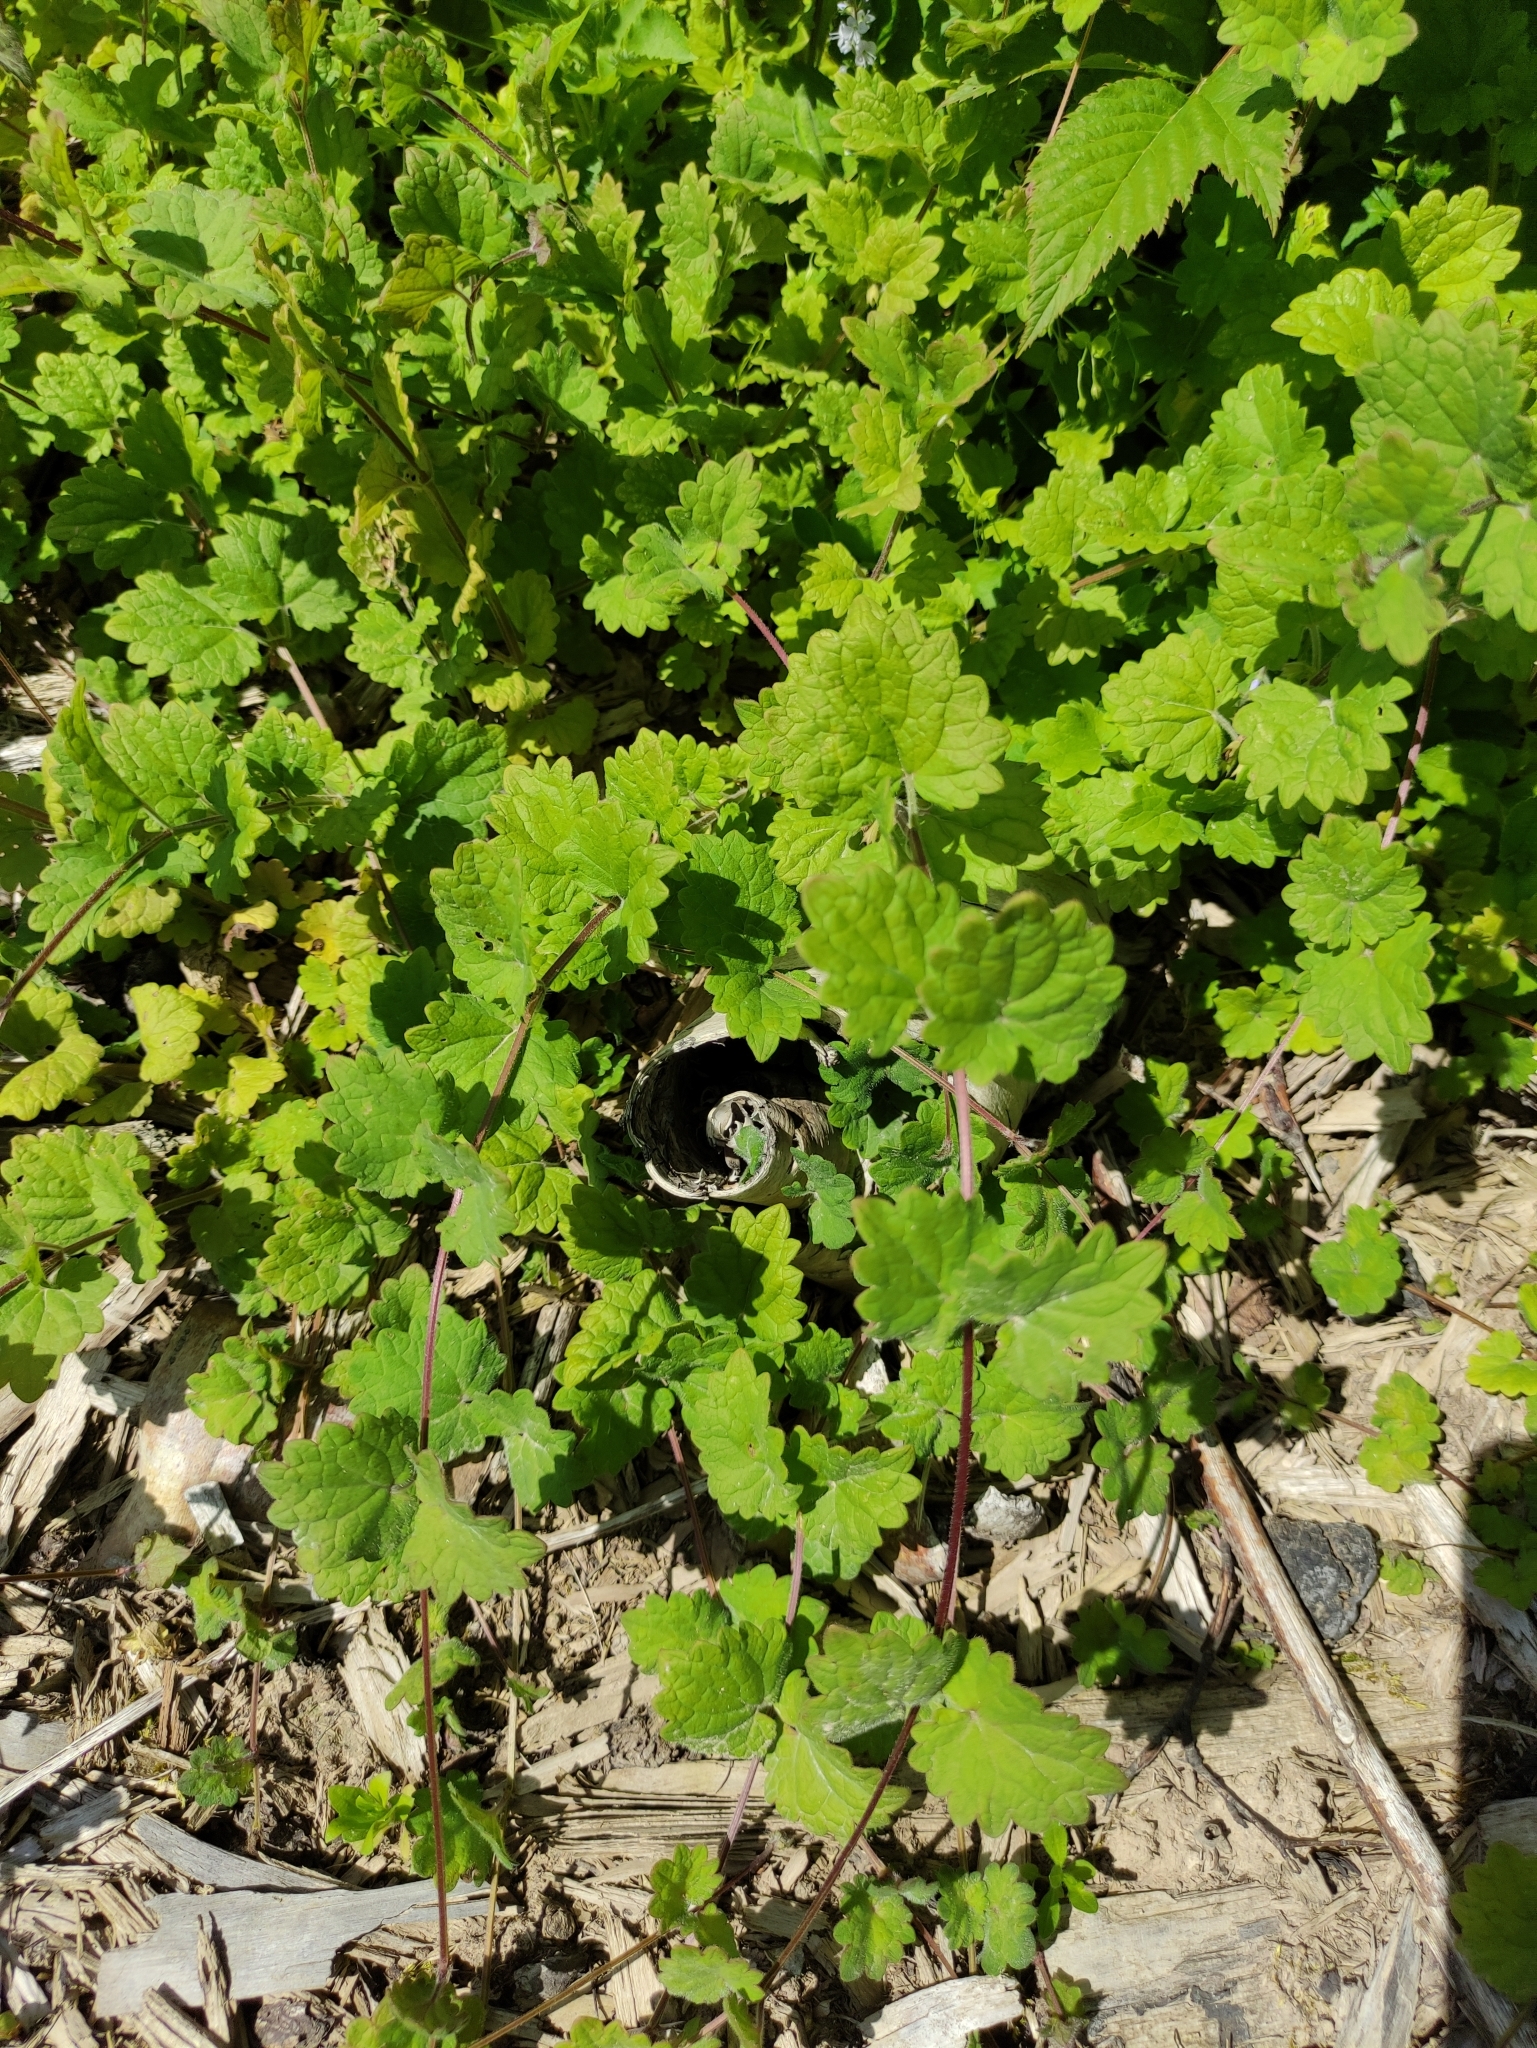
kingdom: Plantae
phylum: Tracheophyta
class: Magnoliopsida
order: Lamiales
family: Lamiaceae
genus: Glechoma
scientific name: Glechoma hederacea
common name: Ground ivy
